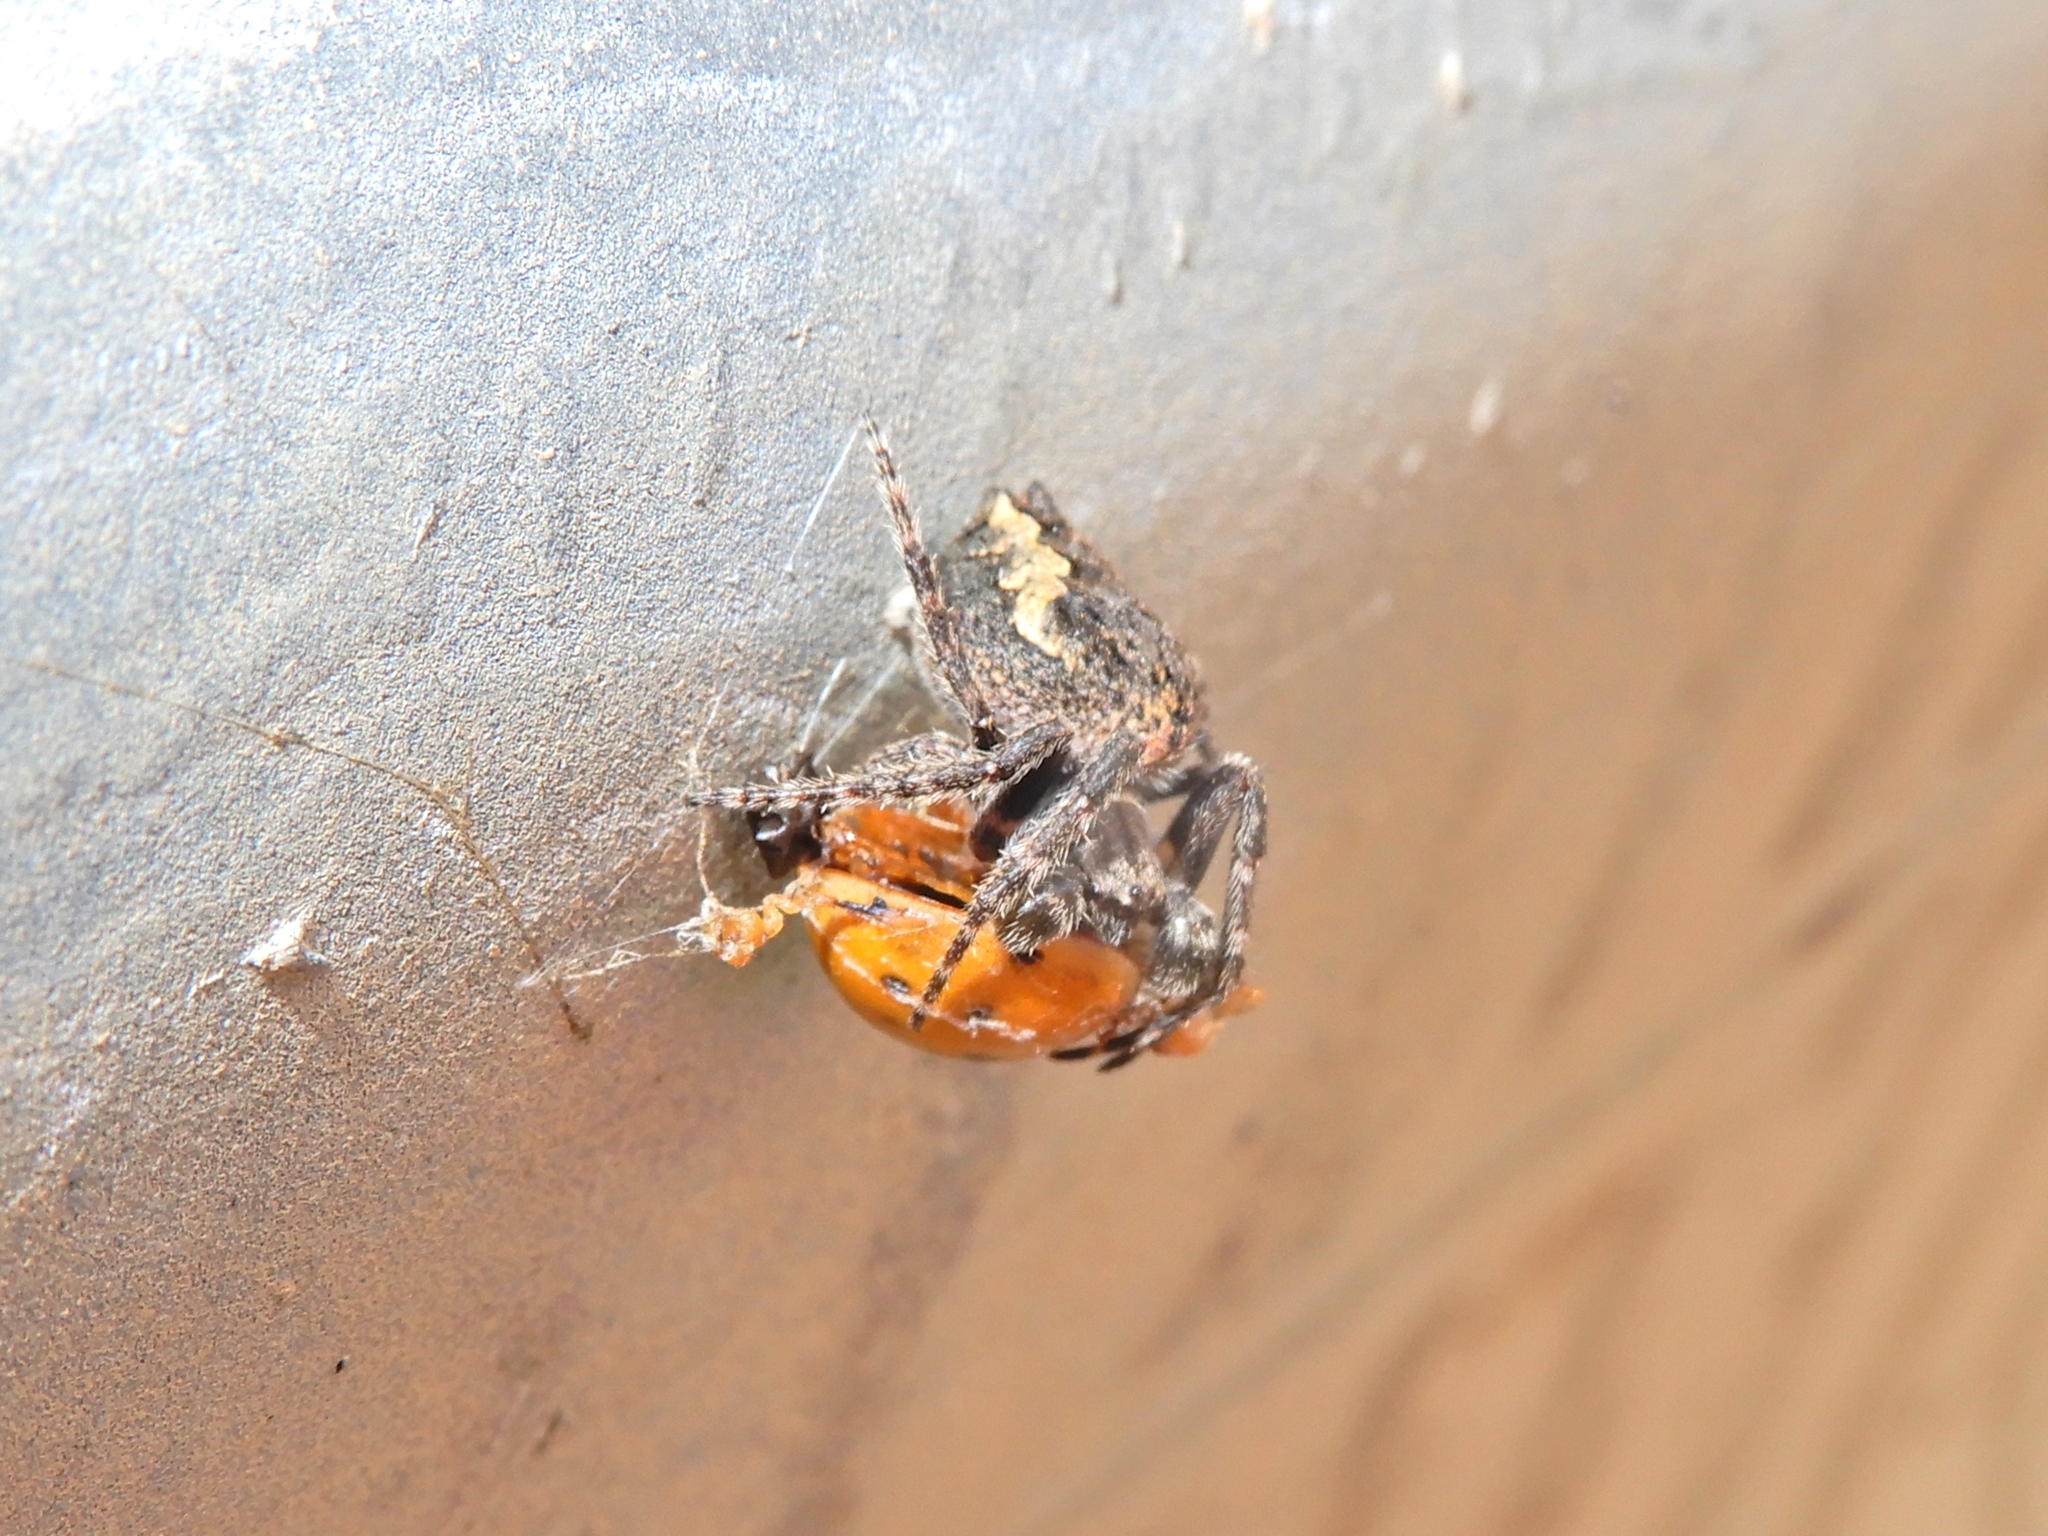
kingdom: Animalia
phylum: Arthropoda
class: Arachnida
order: Araneae
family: Araneidae
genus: Eriophora
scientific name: Eriophora pustulosa
